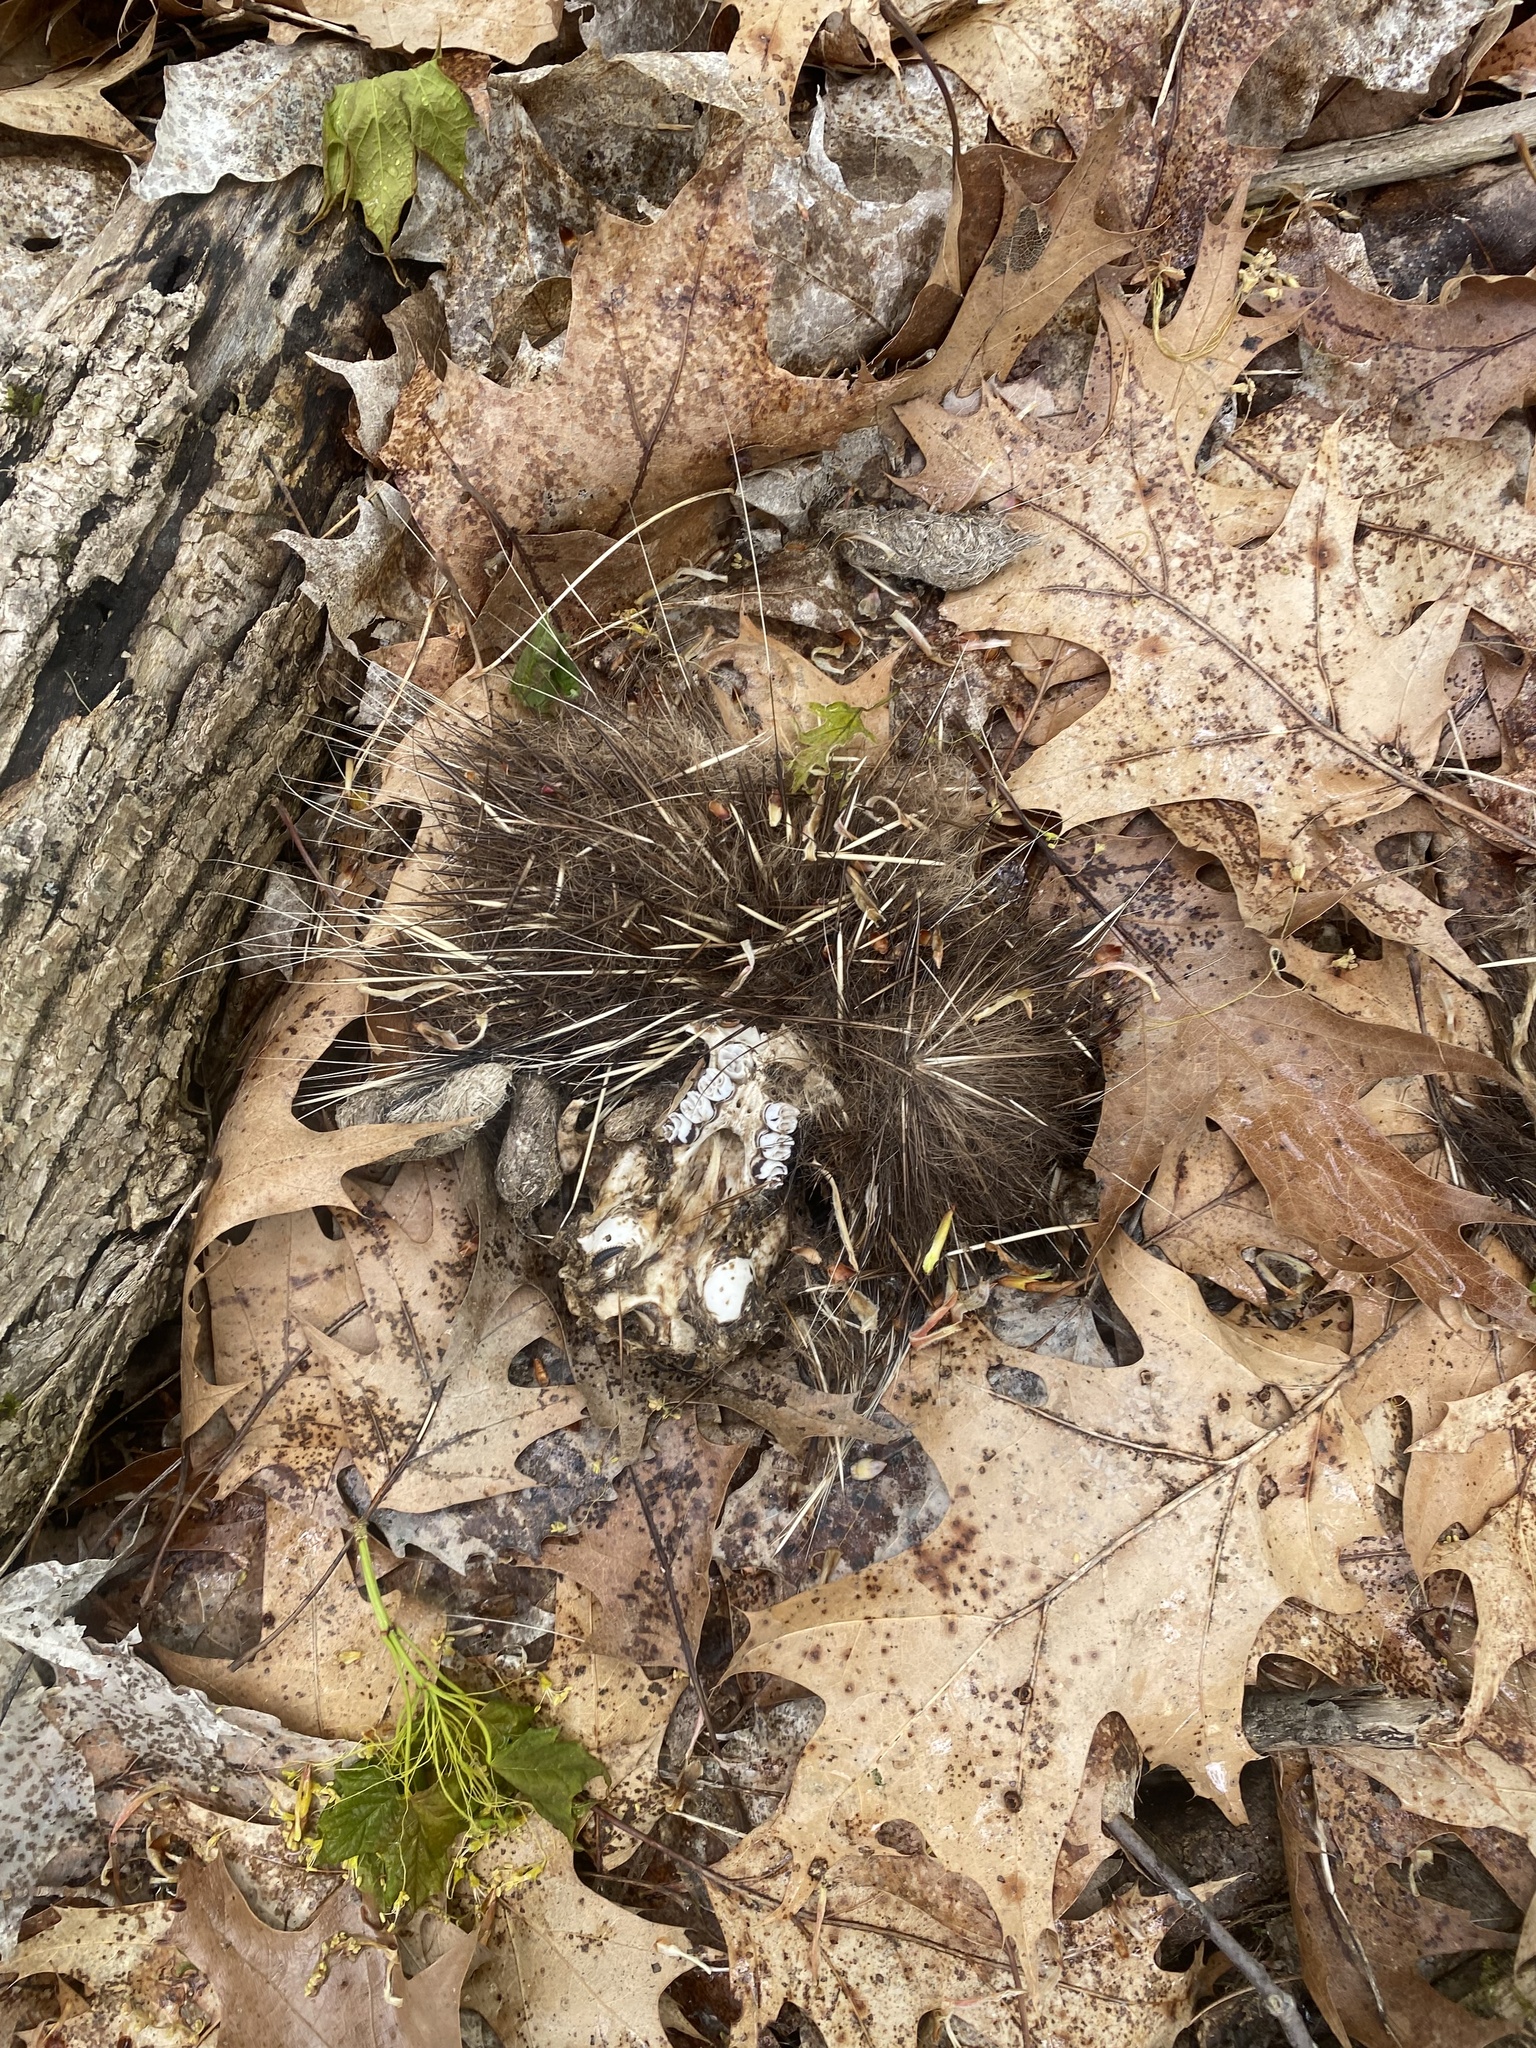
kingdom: Animalia
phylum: Chordata
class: Mammalia
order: Rodentia
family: Erethizontidae
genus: Erethizon
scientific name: Erethizon dorsatus
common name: North american porcupine
